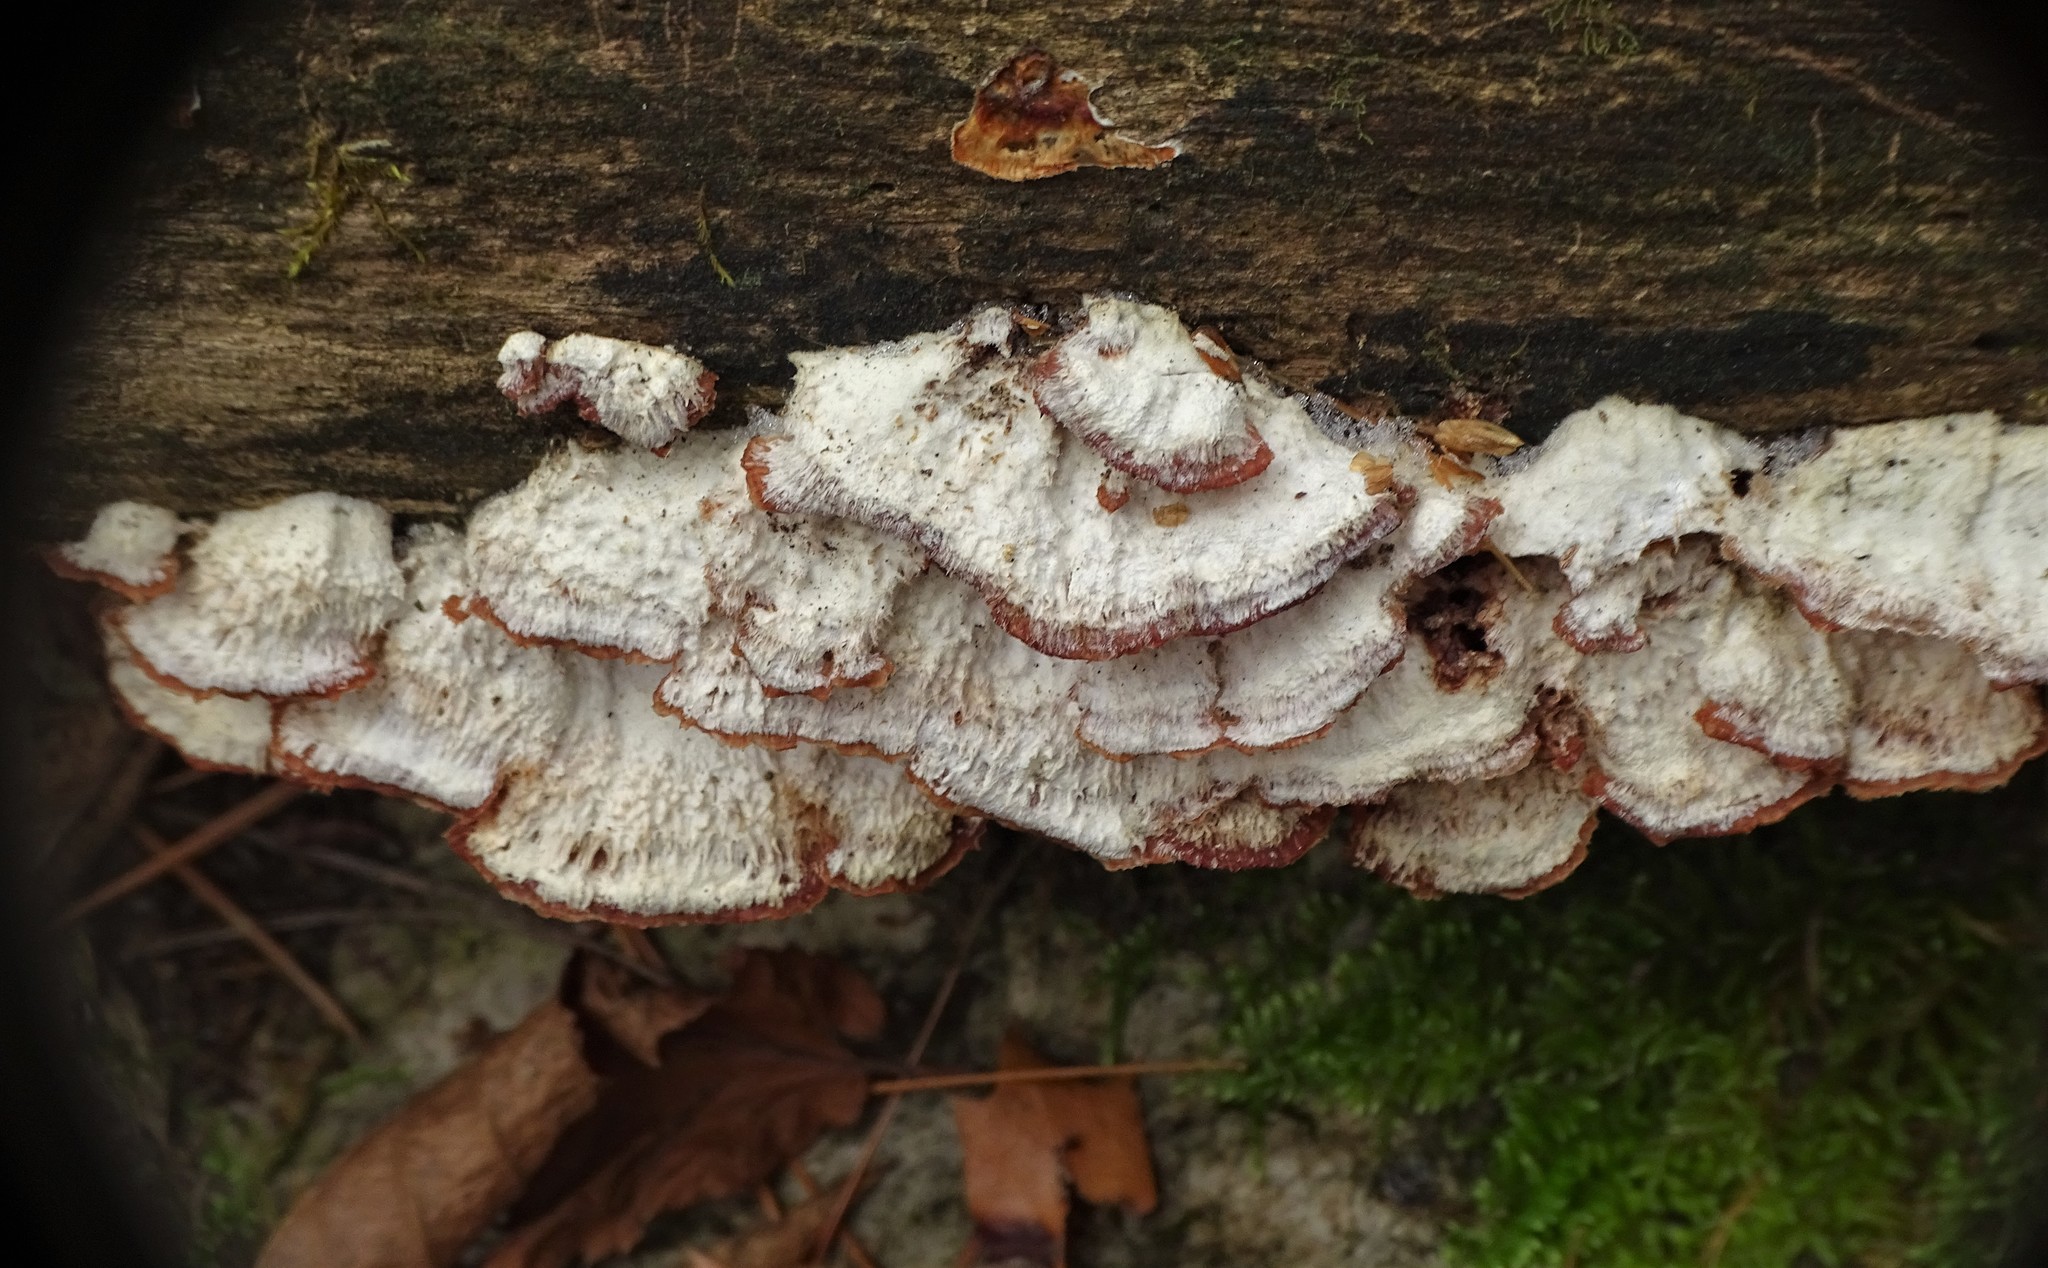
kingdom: Fungi
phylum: Basidiomycota
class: Agaricomycetes
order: Polyporales
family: Meruliaceae
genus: Phlebia
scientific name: Phlebia tremellosa
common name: Jelly rot
